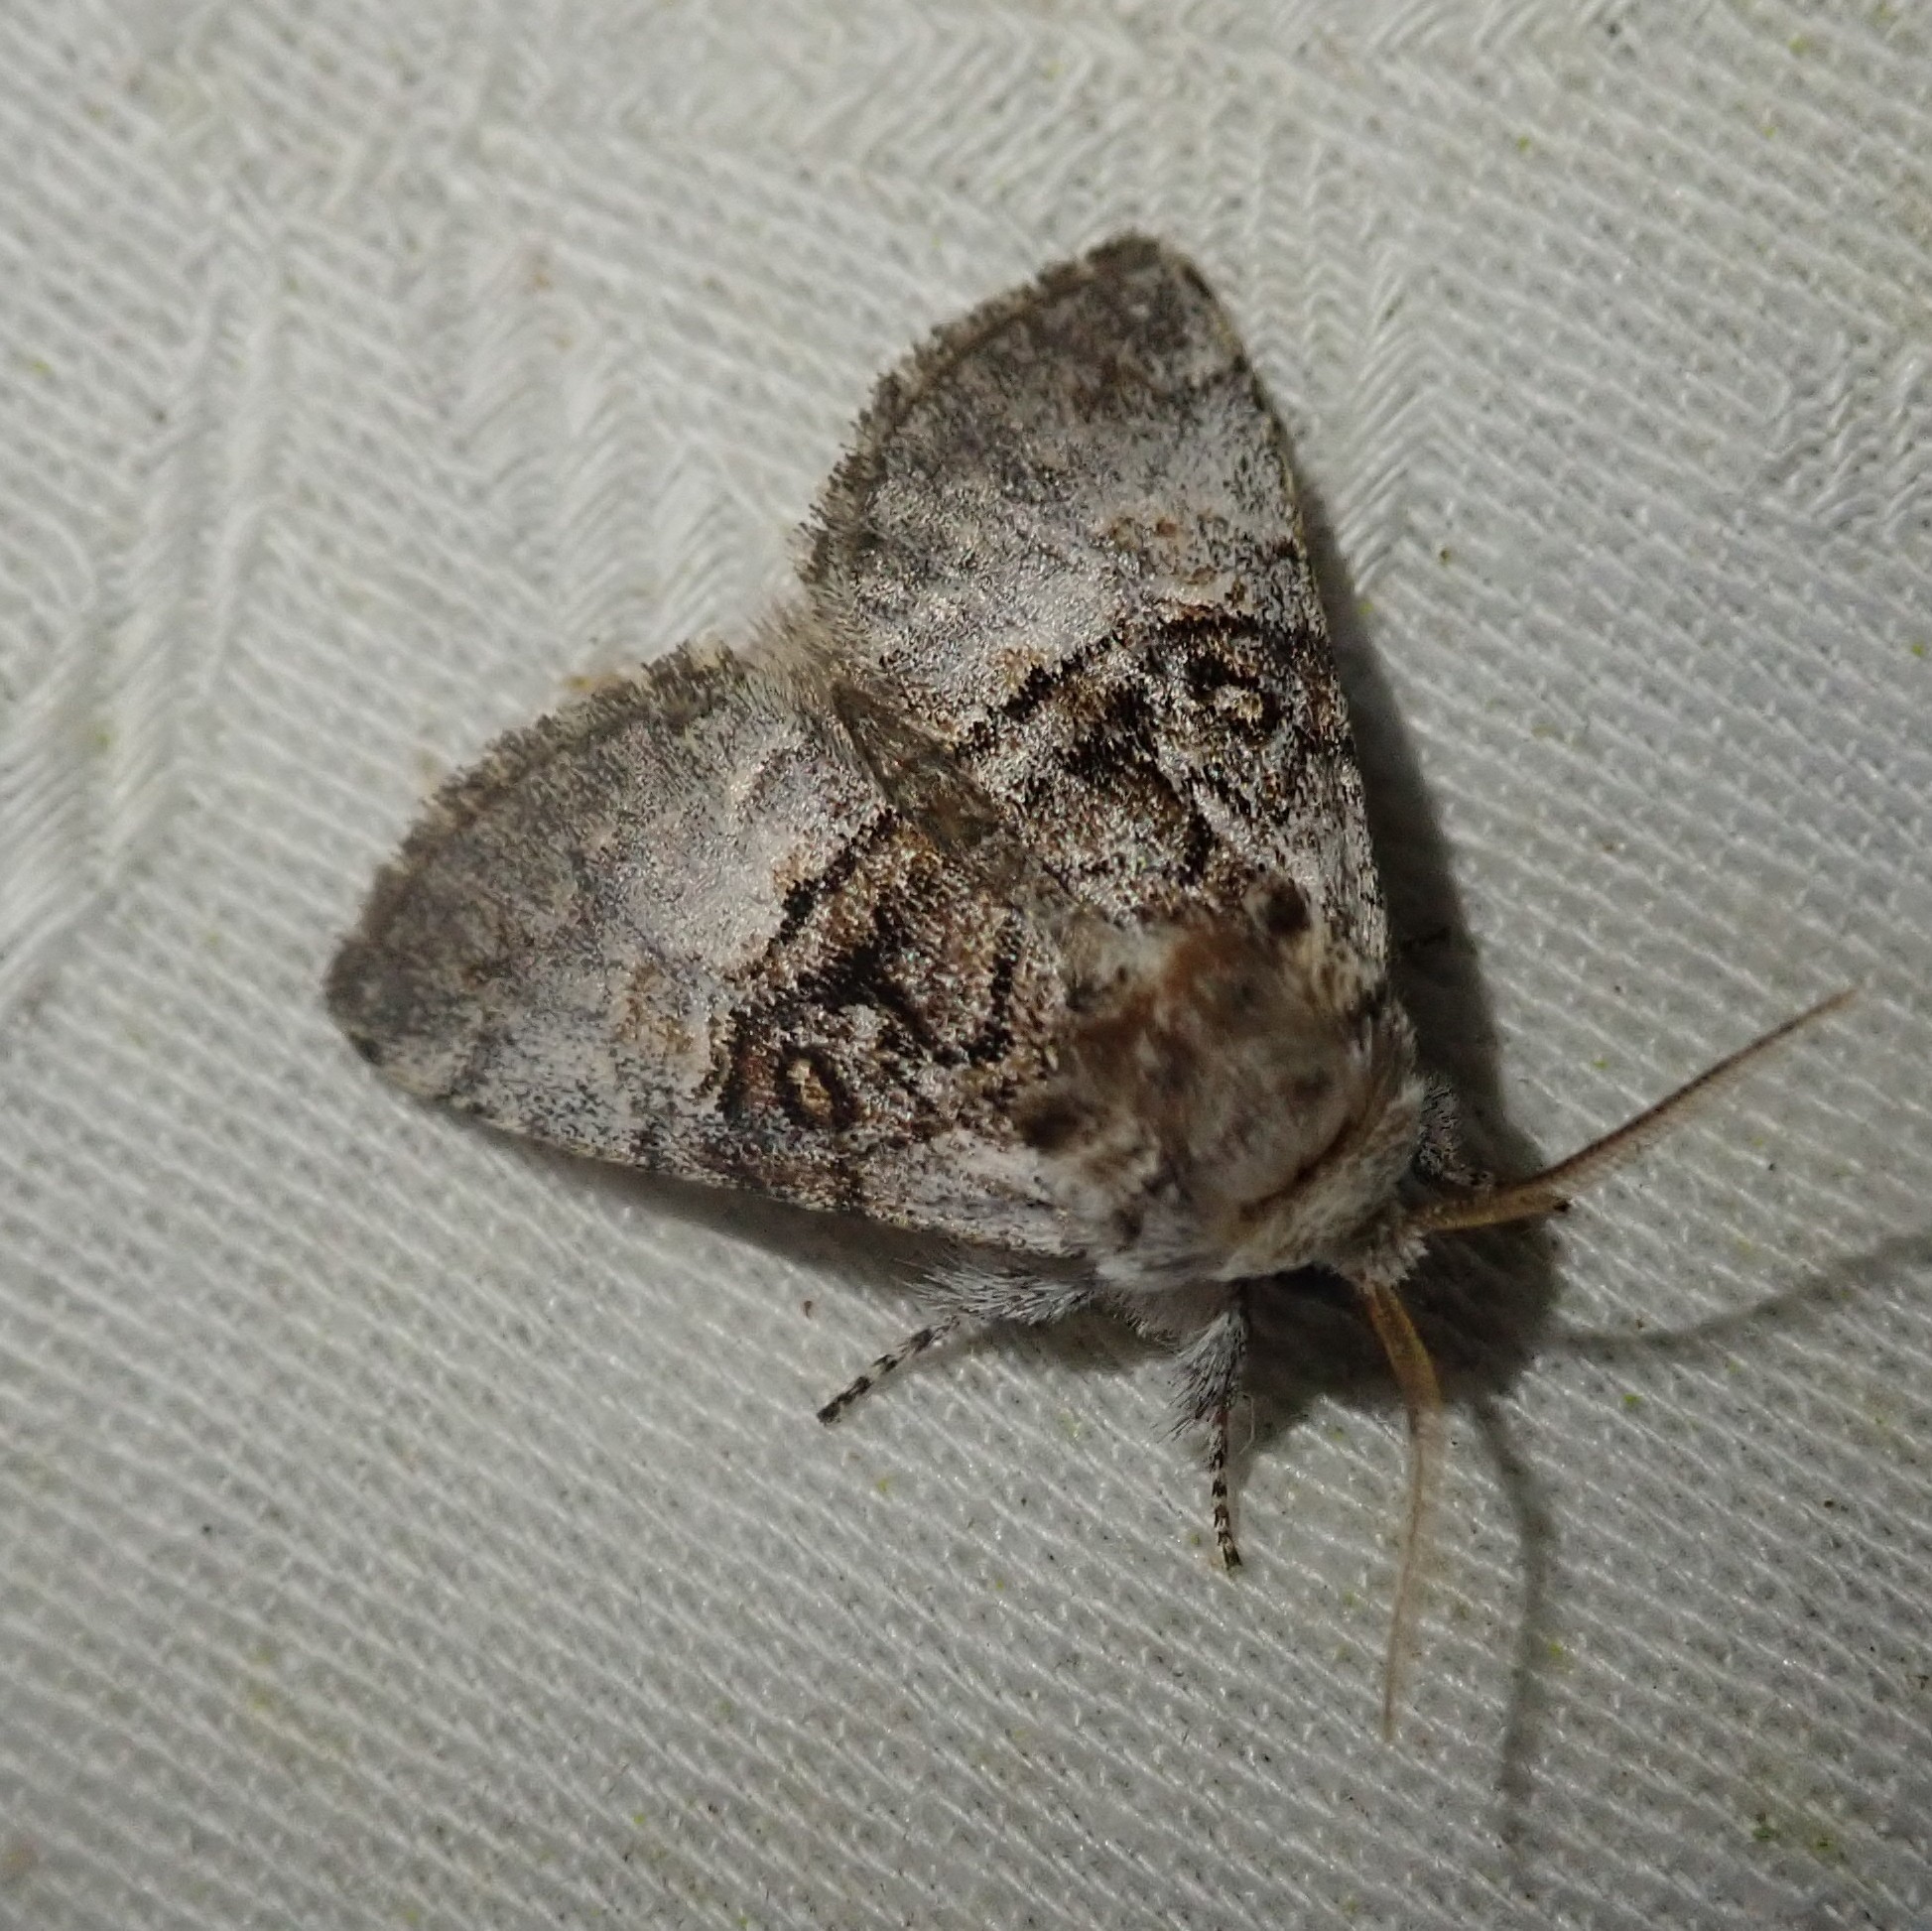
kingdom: Animalia
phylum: Arthropoda
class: Insecta
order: Lepidoptera
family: Noctuidae
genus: Colocasia
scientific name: Colocasia coryli
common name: Nut-tree tussock
